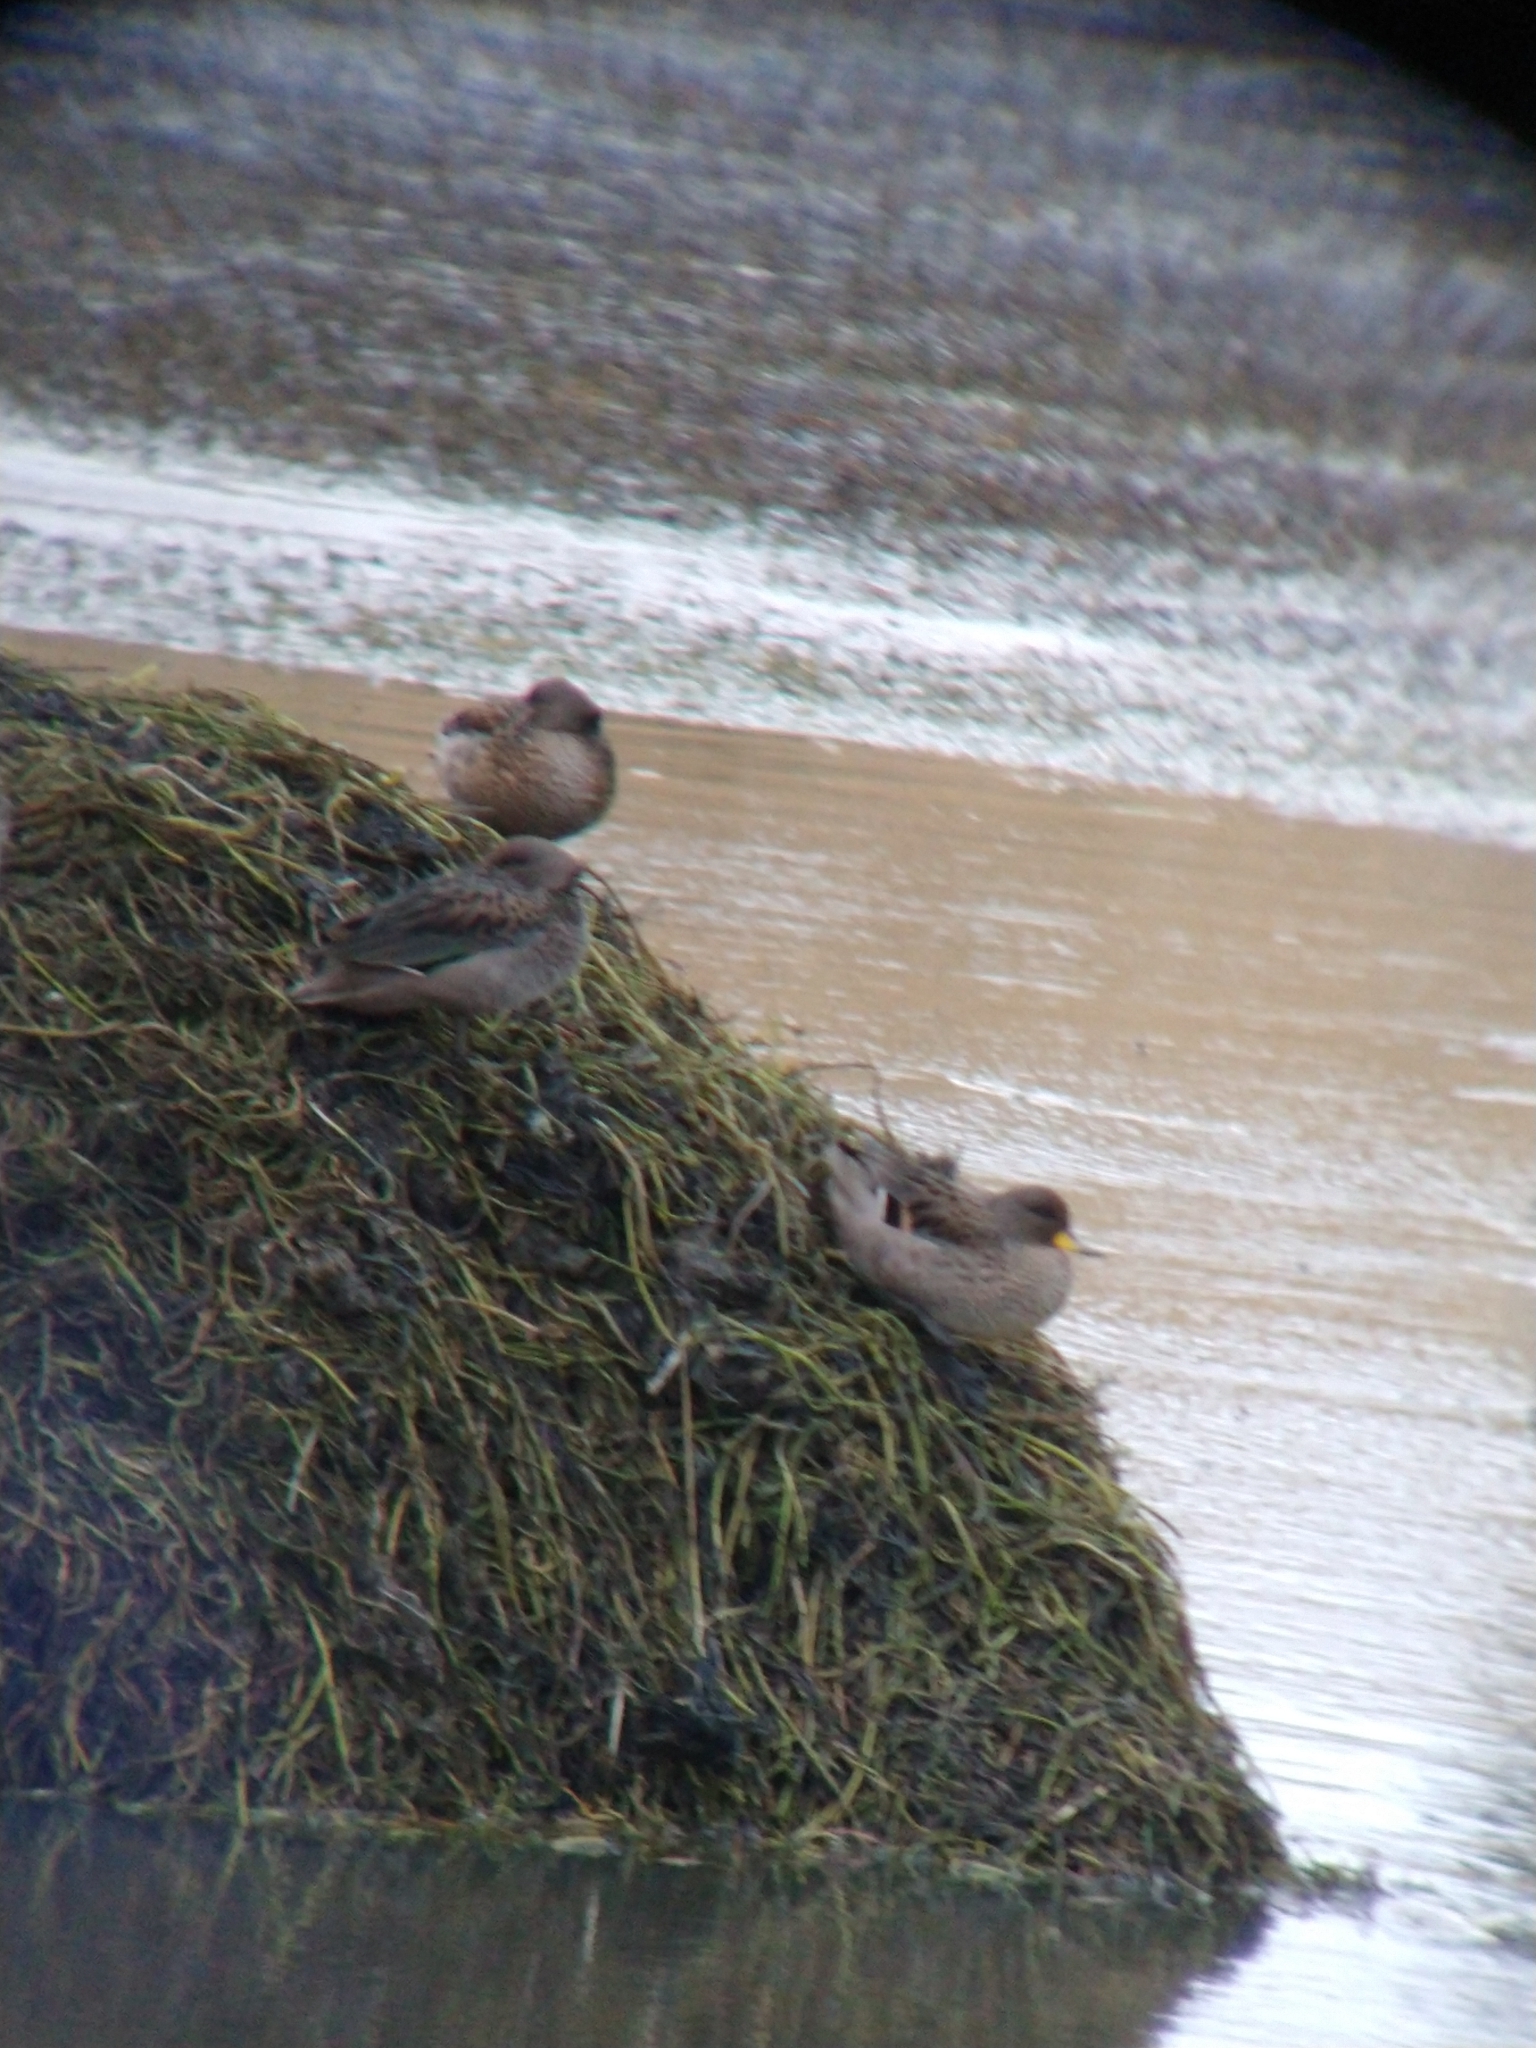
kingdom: Animalia
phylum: Chordata
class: Aves
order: Anseriformes
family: Anatidae
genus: Anas
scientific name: Anas flavirostris
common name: Yellow-billed teal
